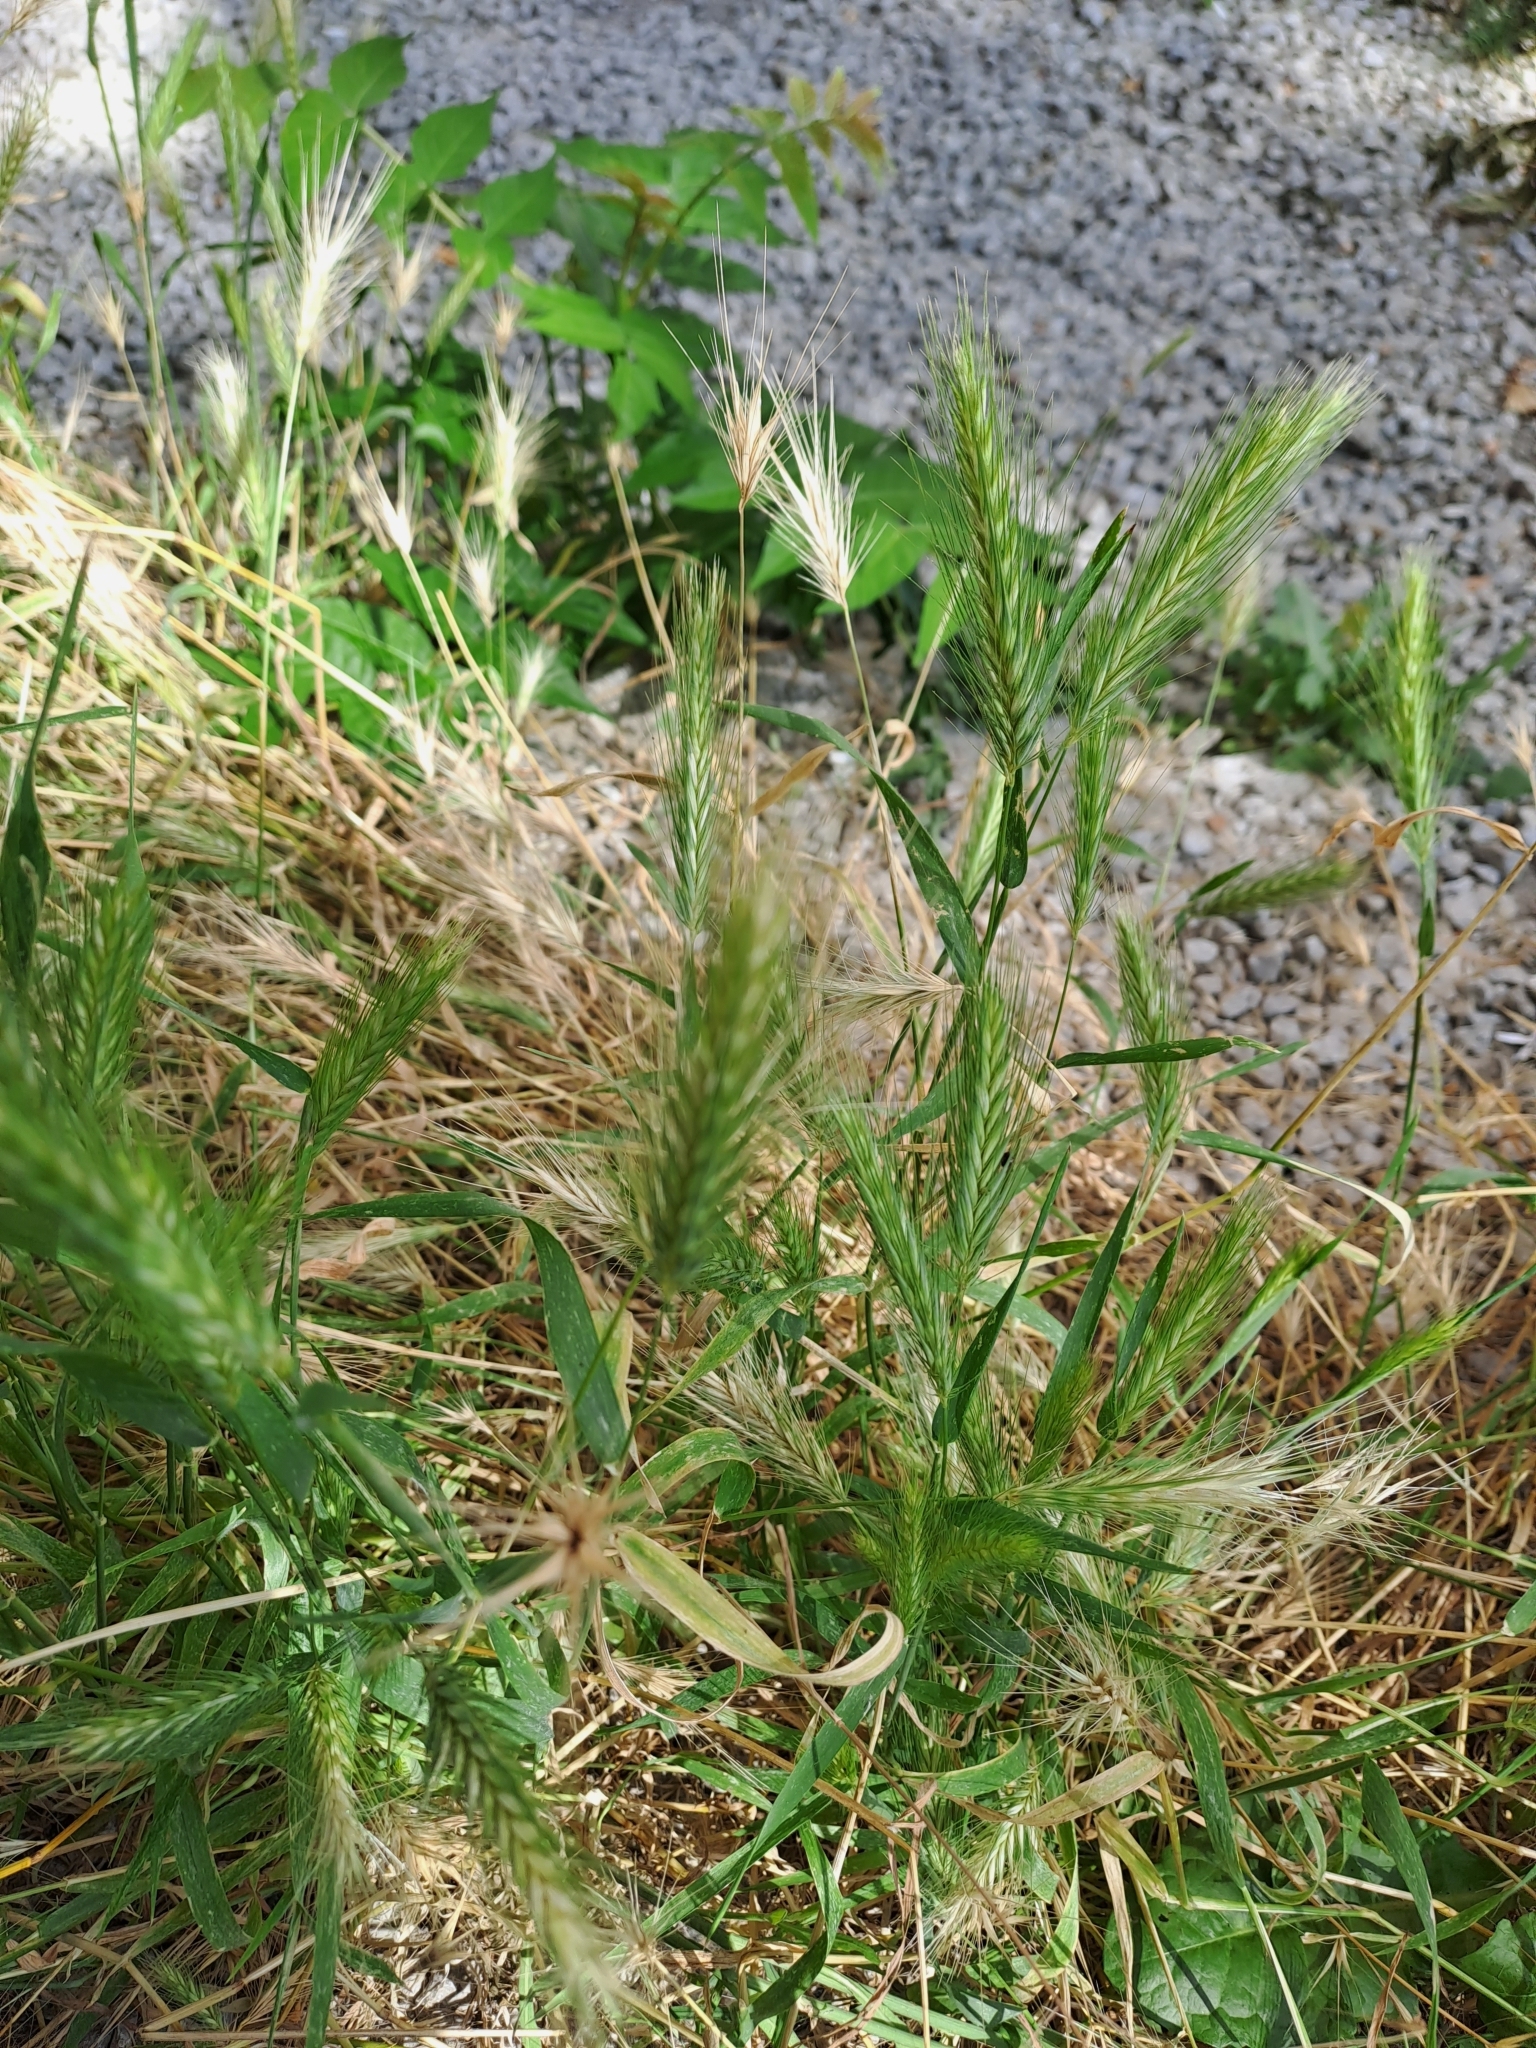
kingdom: Plantae
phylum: Tracheophyta
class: Liliopsida
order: Poales
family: Poaceae
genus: Hordeum
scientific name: Hordeum murinum
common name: Wall barley
